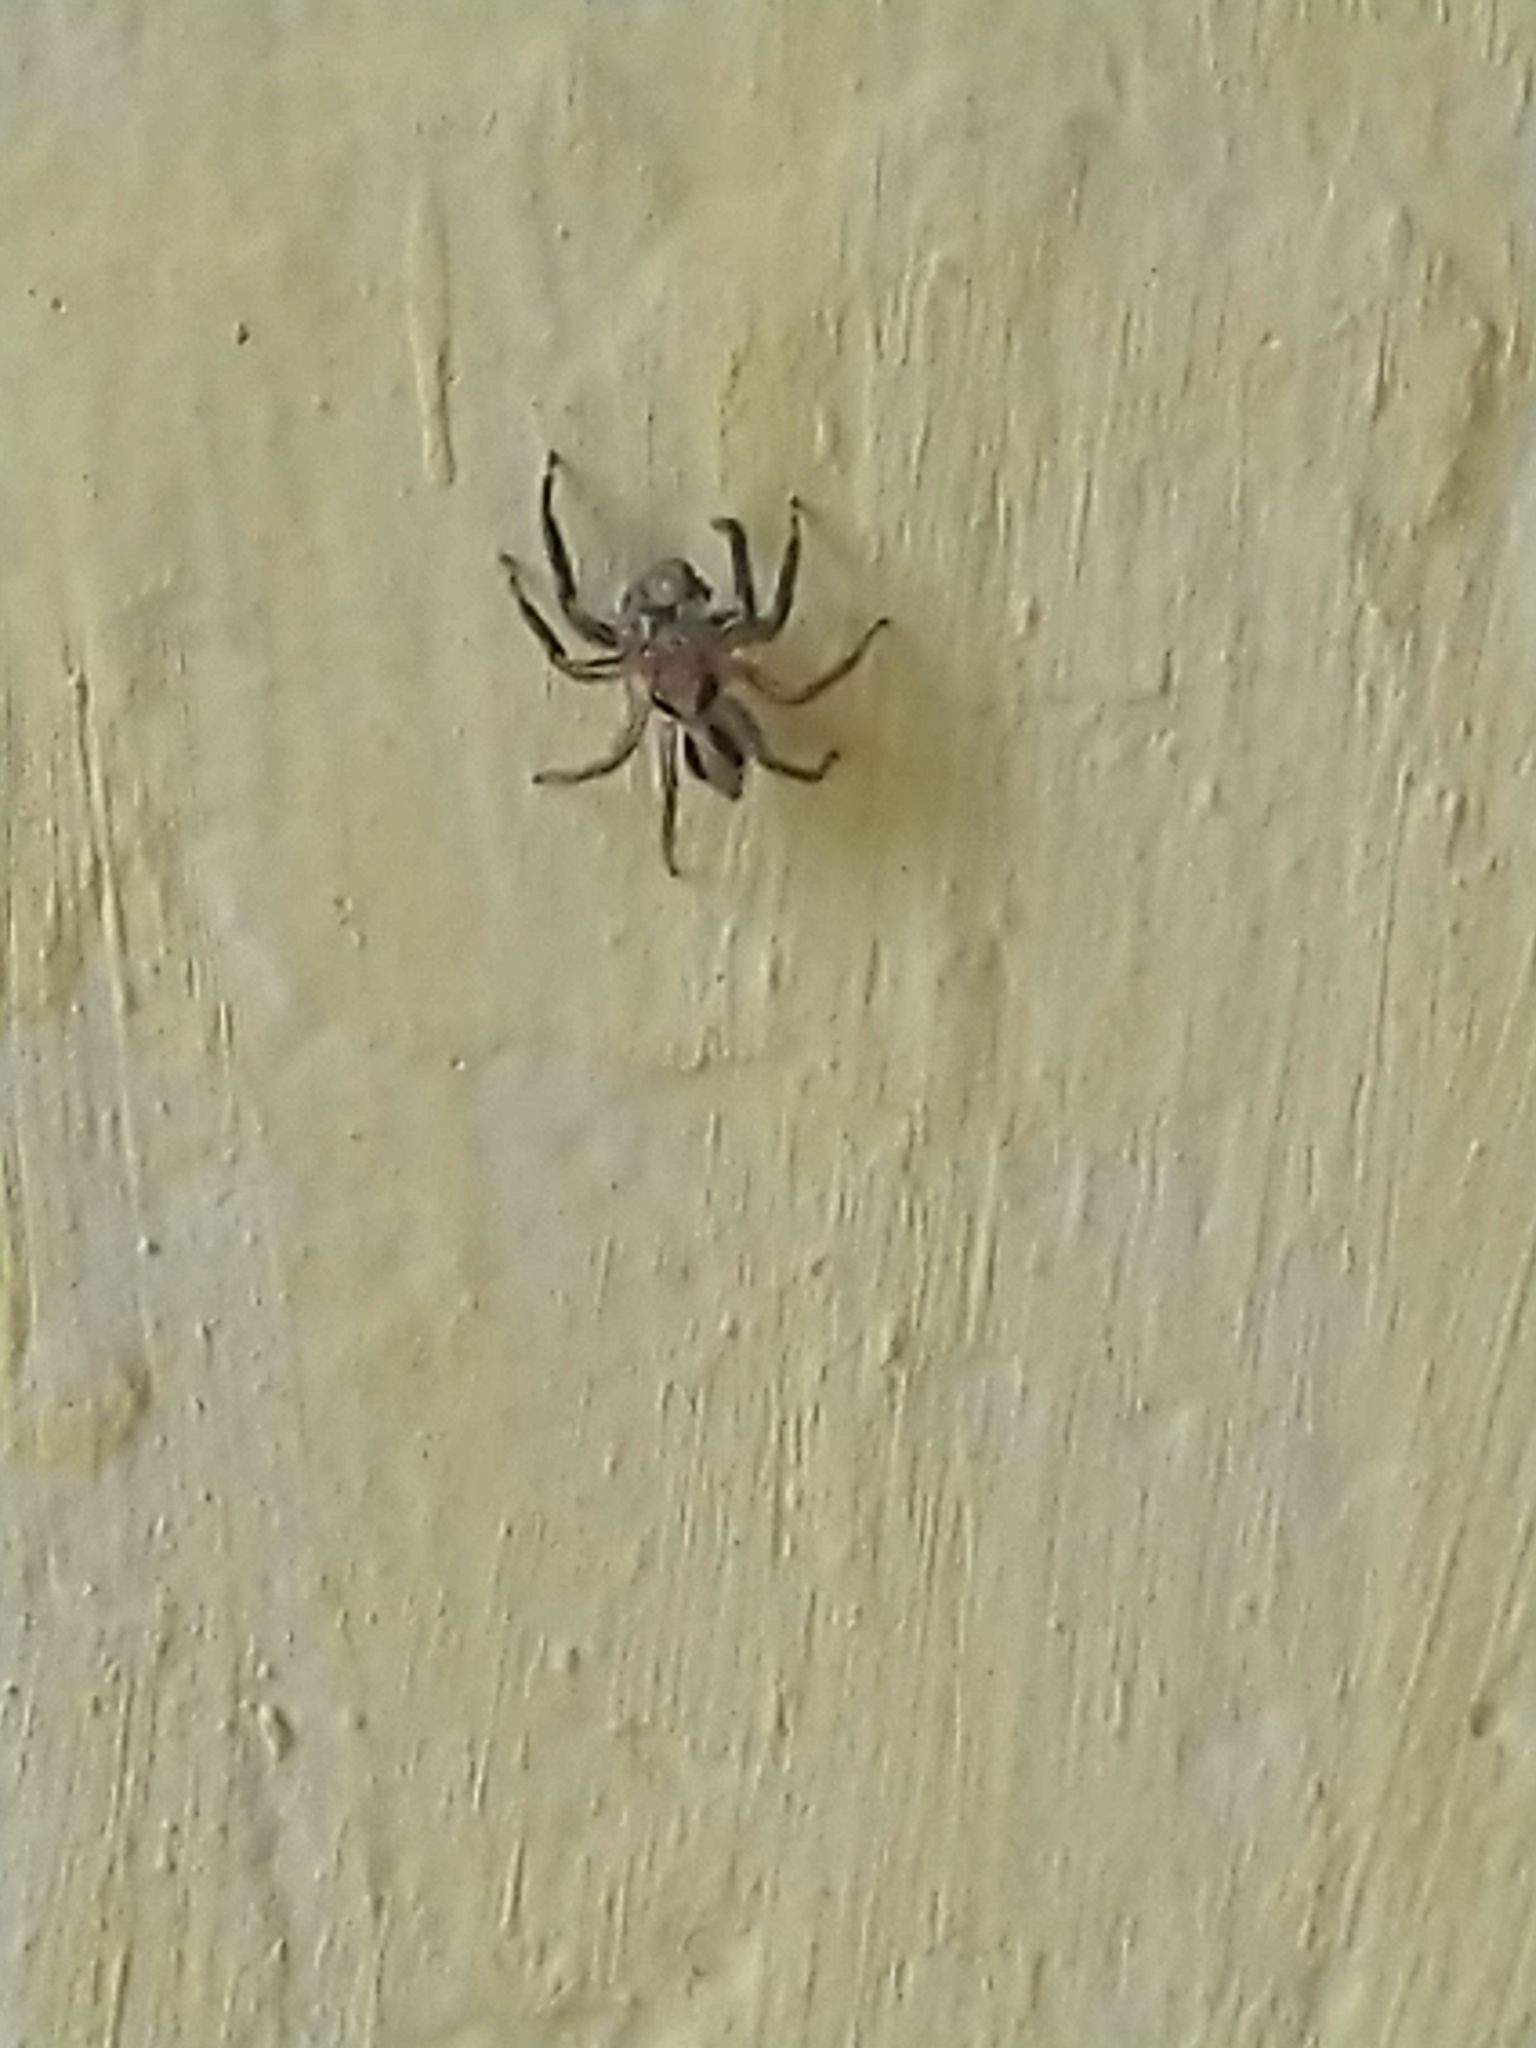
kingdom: Animalia
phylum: Arthropoda
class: Arachnida
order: Araneae
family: Salticidae
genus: Plexippus
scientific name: Plexippus petersi
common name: Jumping spider
